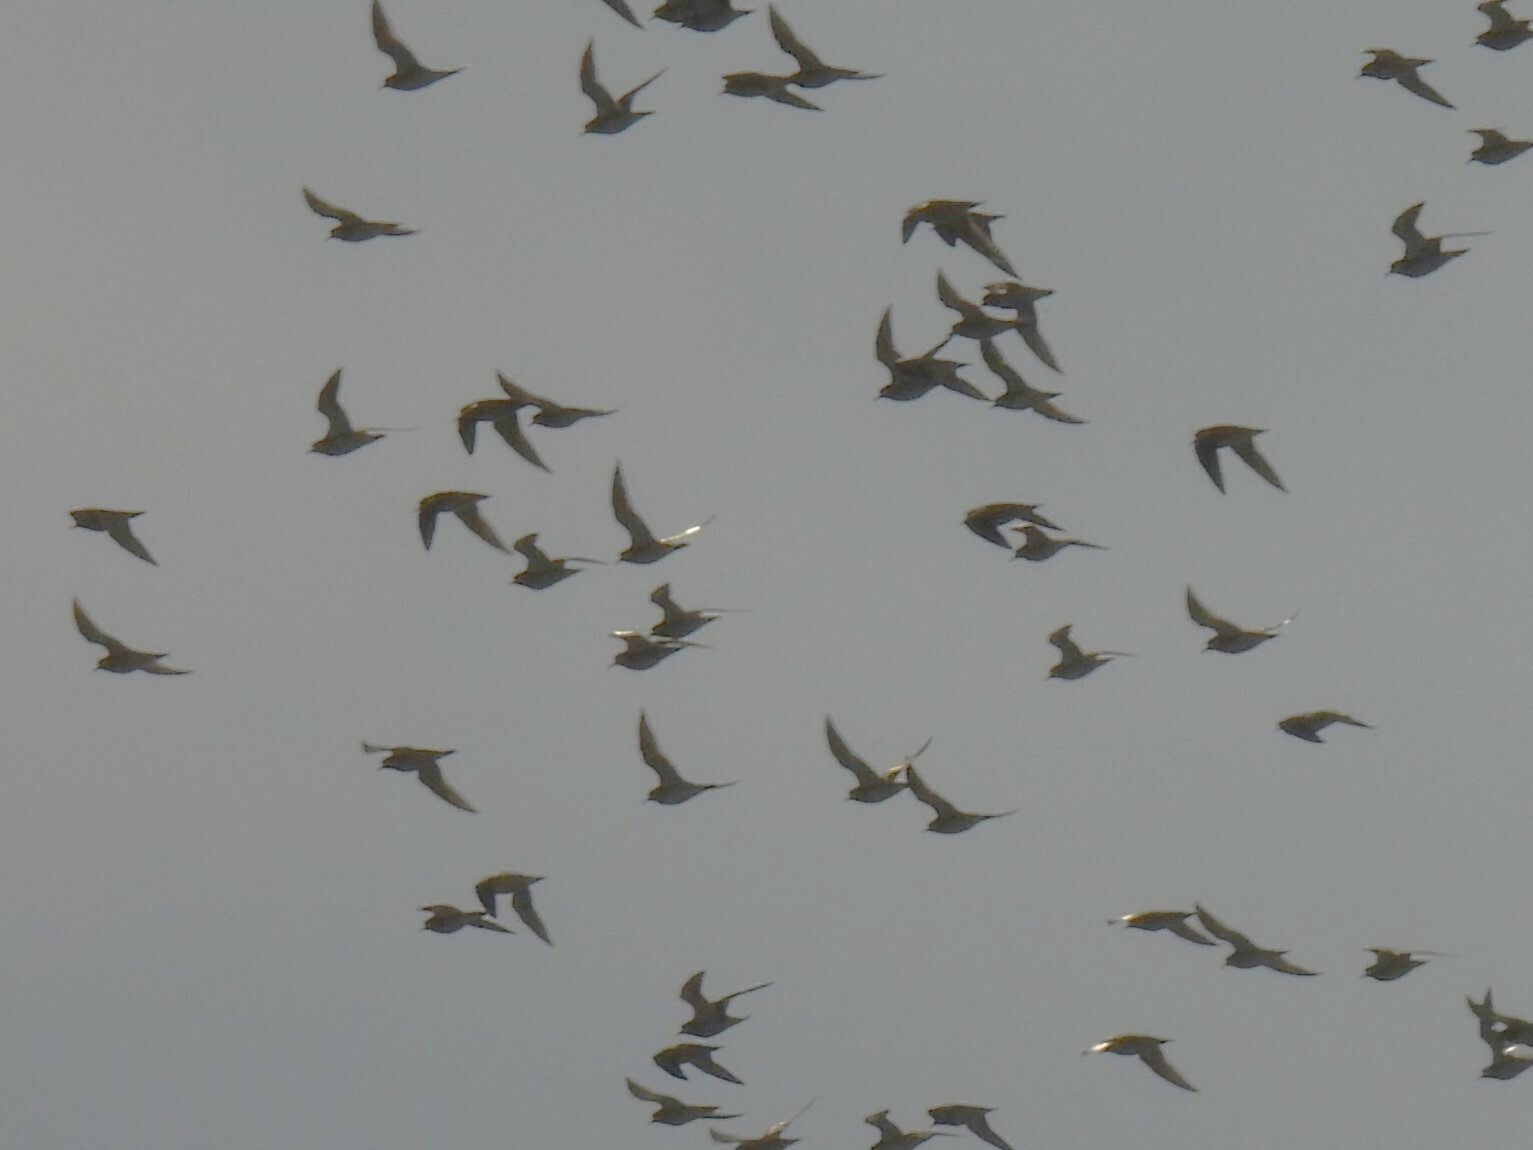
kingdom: Animalia
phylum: Chordata
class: Aves
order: Charadriiformes
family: Charadriidae
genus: Pluvialis
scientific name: Pluvialis apricaria
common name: European golden plover
